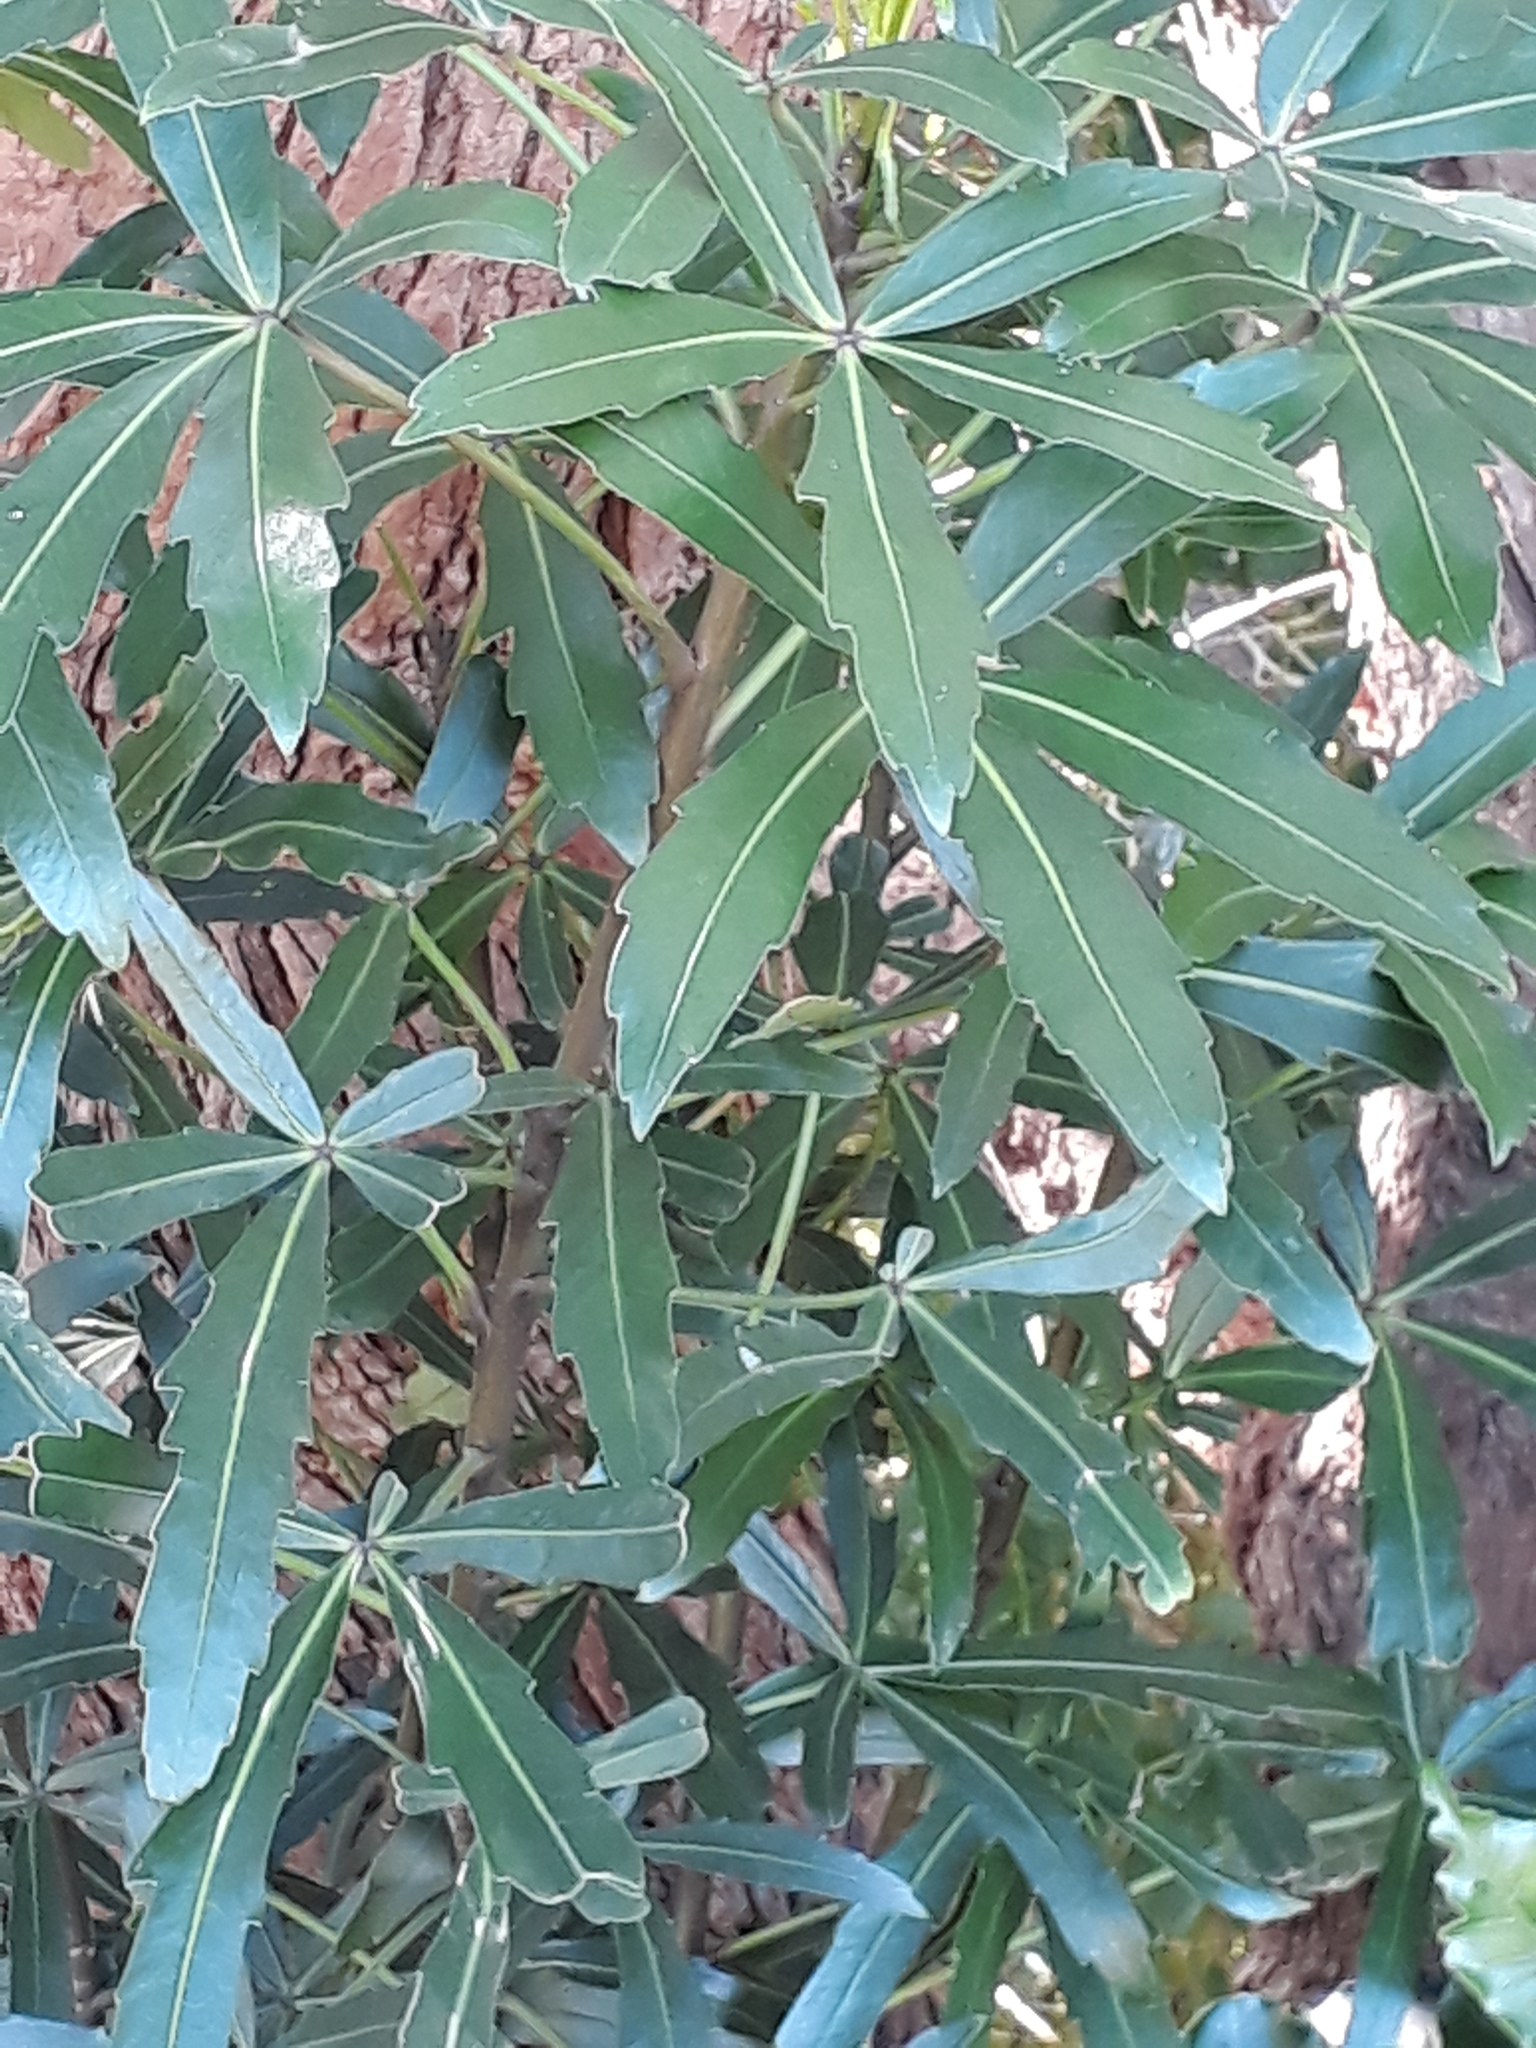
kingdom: Plantae
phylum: Tracheophyta
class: Magnoliopsida
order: Apiales
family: Araliaceae
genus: Pseudopanax
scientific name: Pseudopanax
